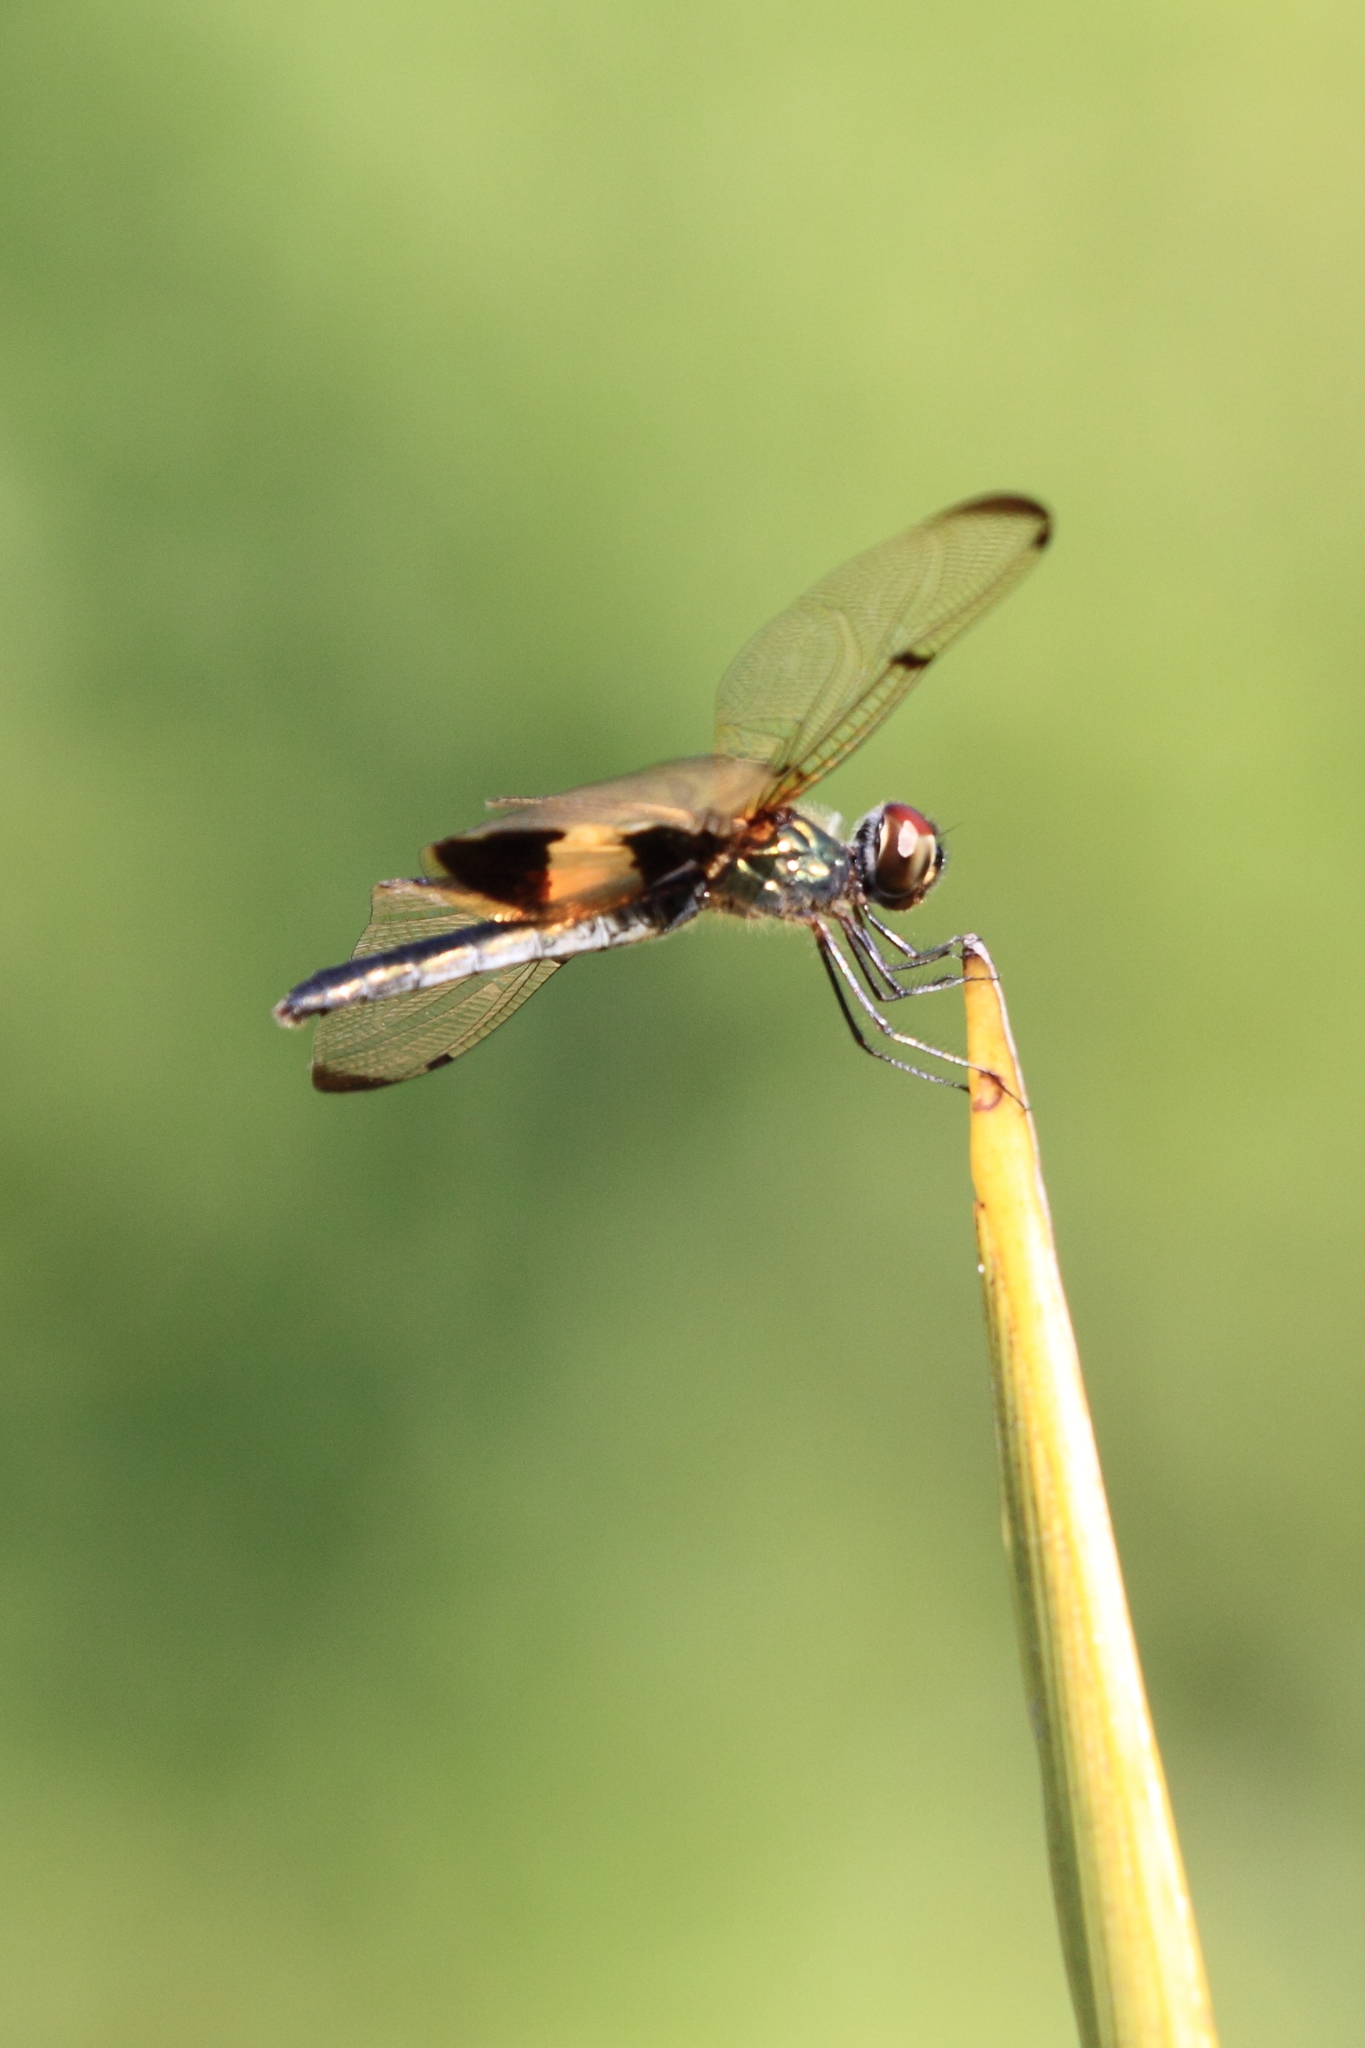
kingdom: Animalia
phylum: Arthropoda
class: Insecta
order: Odonata
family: Libellulidae
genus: Rhyothemis
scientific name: Rhyothemis phyllis
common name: Yellow-barred flutterer
